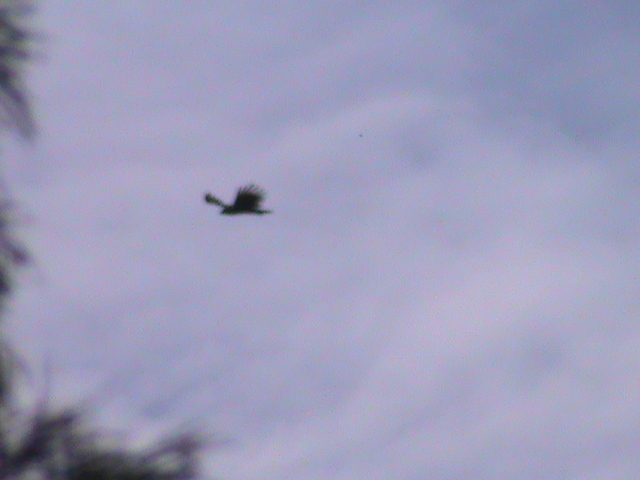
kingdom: Animalia
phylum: Chordata
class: Aves
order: Accipitriformes
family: Accipitridae
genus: Ictinaetus
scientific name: Ictinaetus malayensis
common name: Black eagle
